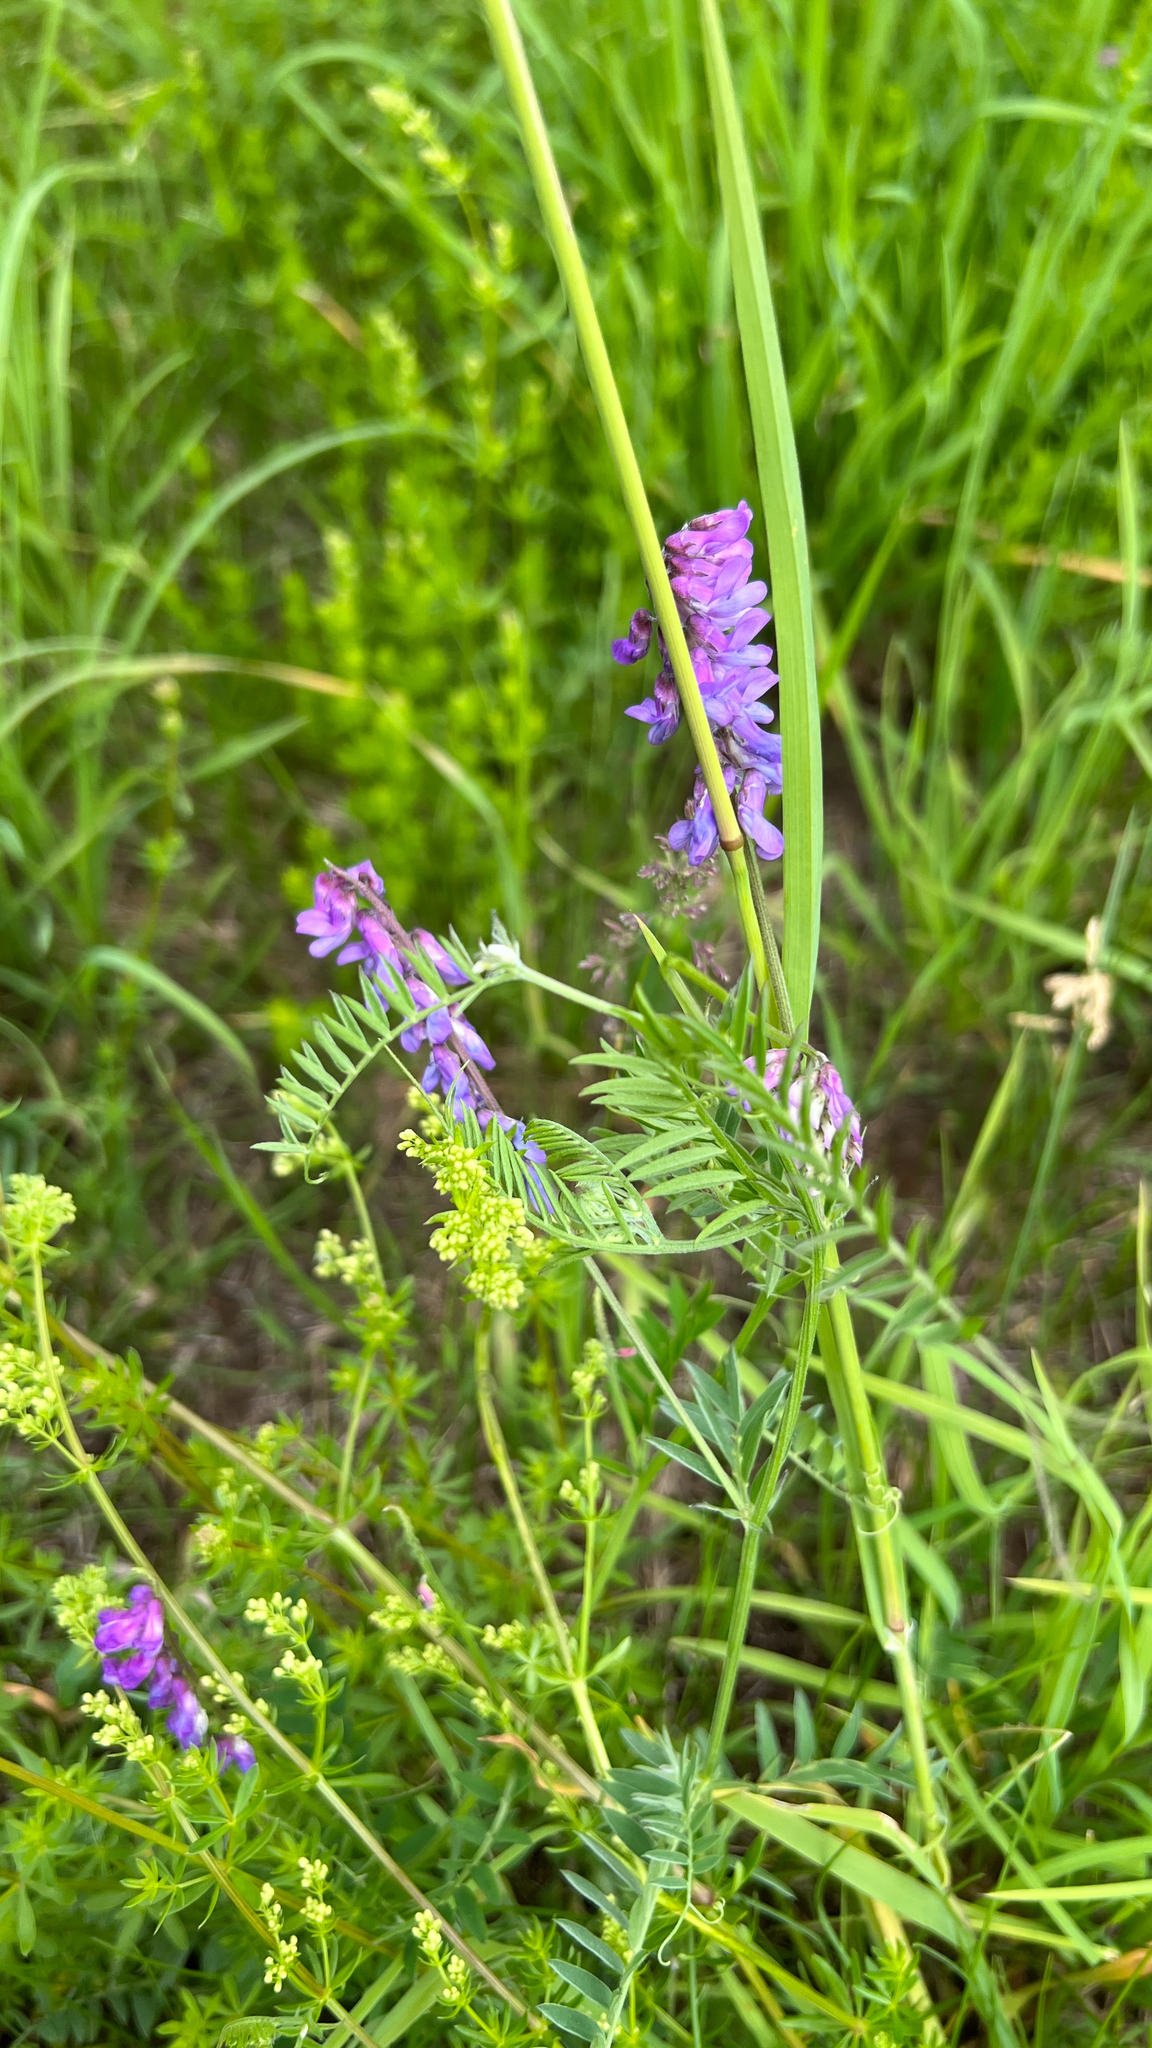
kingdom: Plantae
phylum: Tracheophyta
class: Magnoliopsida
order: Fabales
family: Fabaceae
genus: Vicia
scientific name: Vicia cracca
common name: Bird vetch
